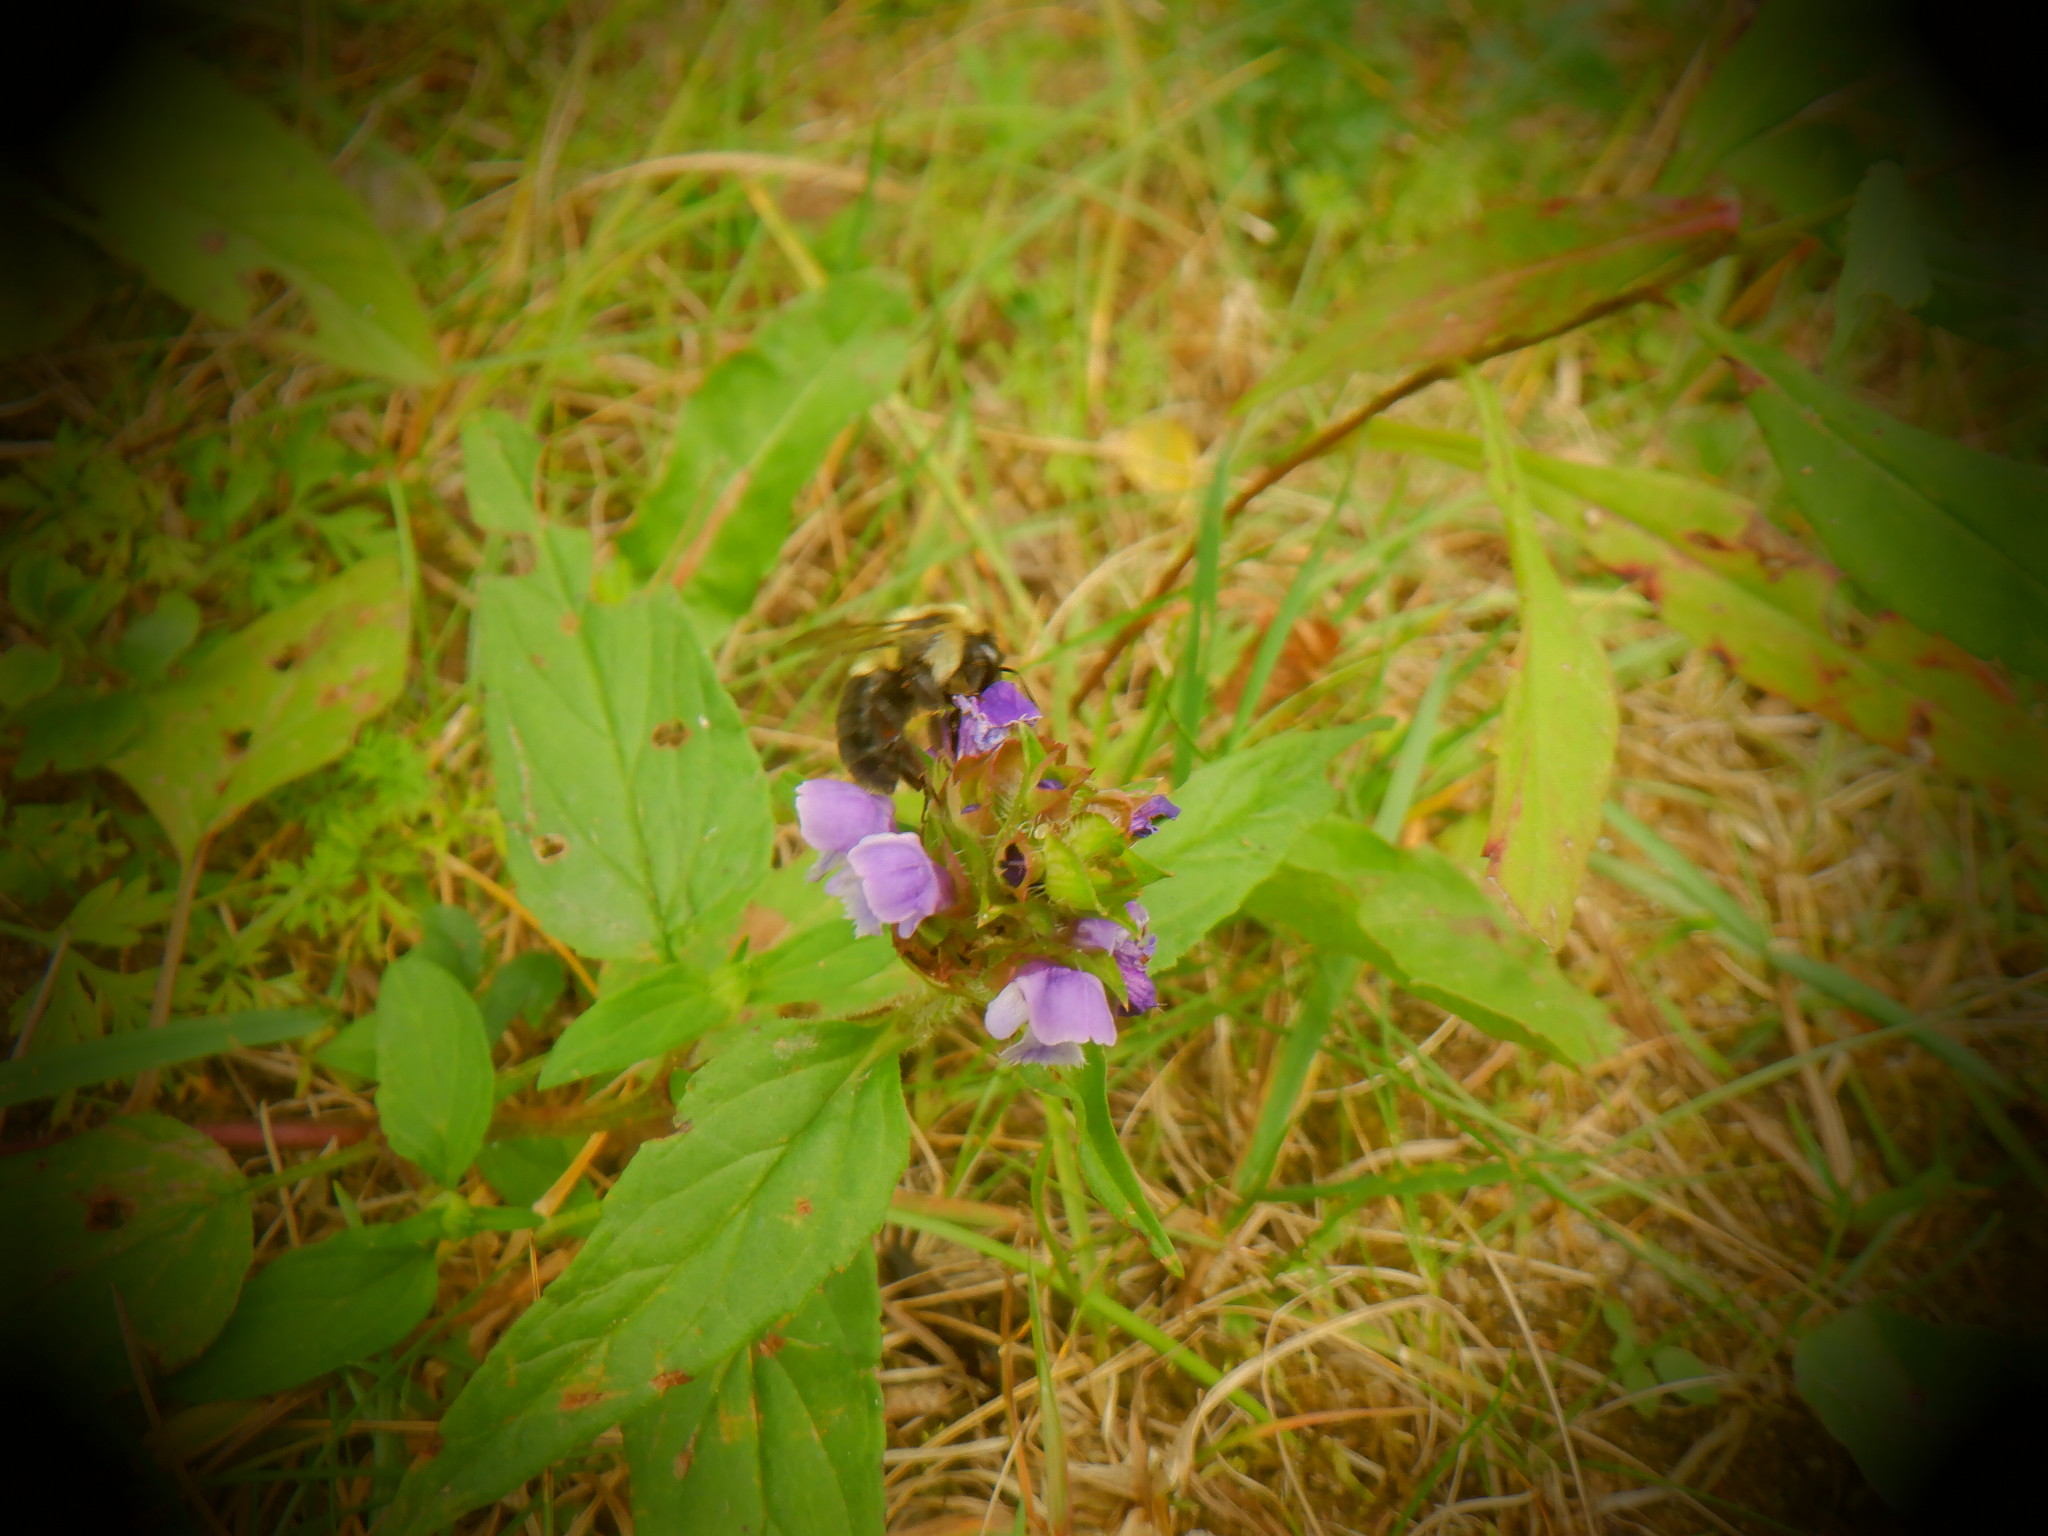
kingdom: Animalia
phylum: Arthropoda
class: Insecta
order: Hymenoptera
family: Apidae
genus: Bombus
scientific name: Bombus impatiens
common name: Common eastern bumble bee
